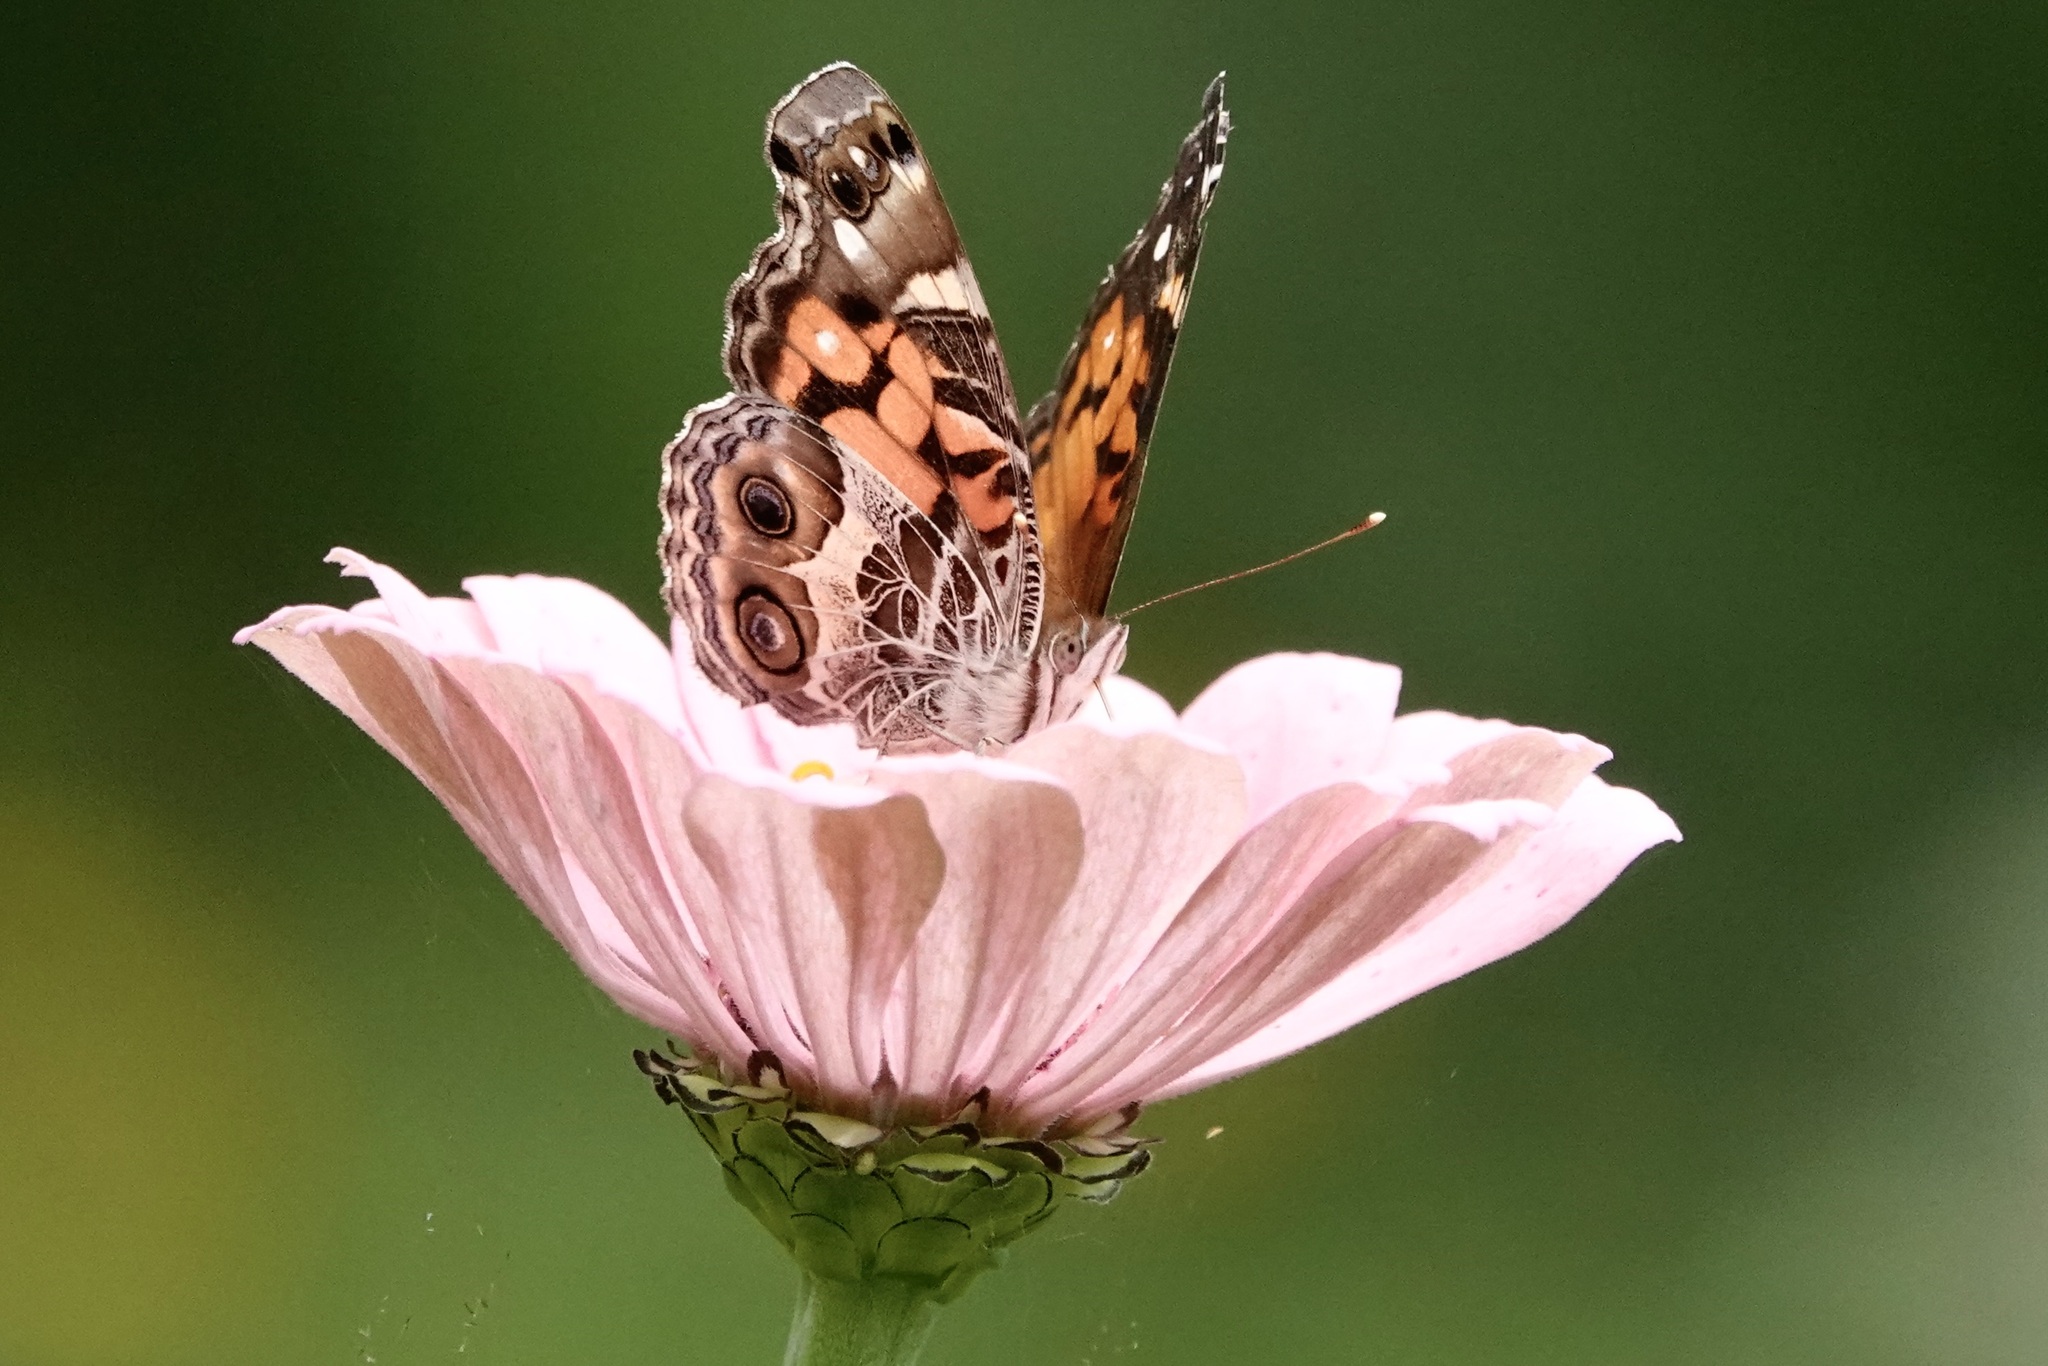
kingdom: Animalia
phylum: Arthropoda
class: Insecta
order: Lepidoptera
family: Nymphalidae
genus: Vanessa
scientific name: Vanessa virginiensis
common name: American lady
